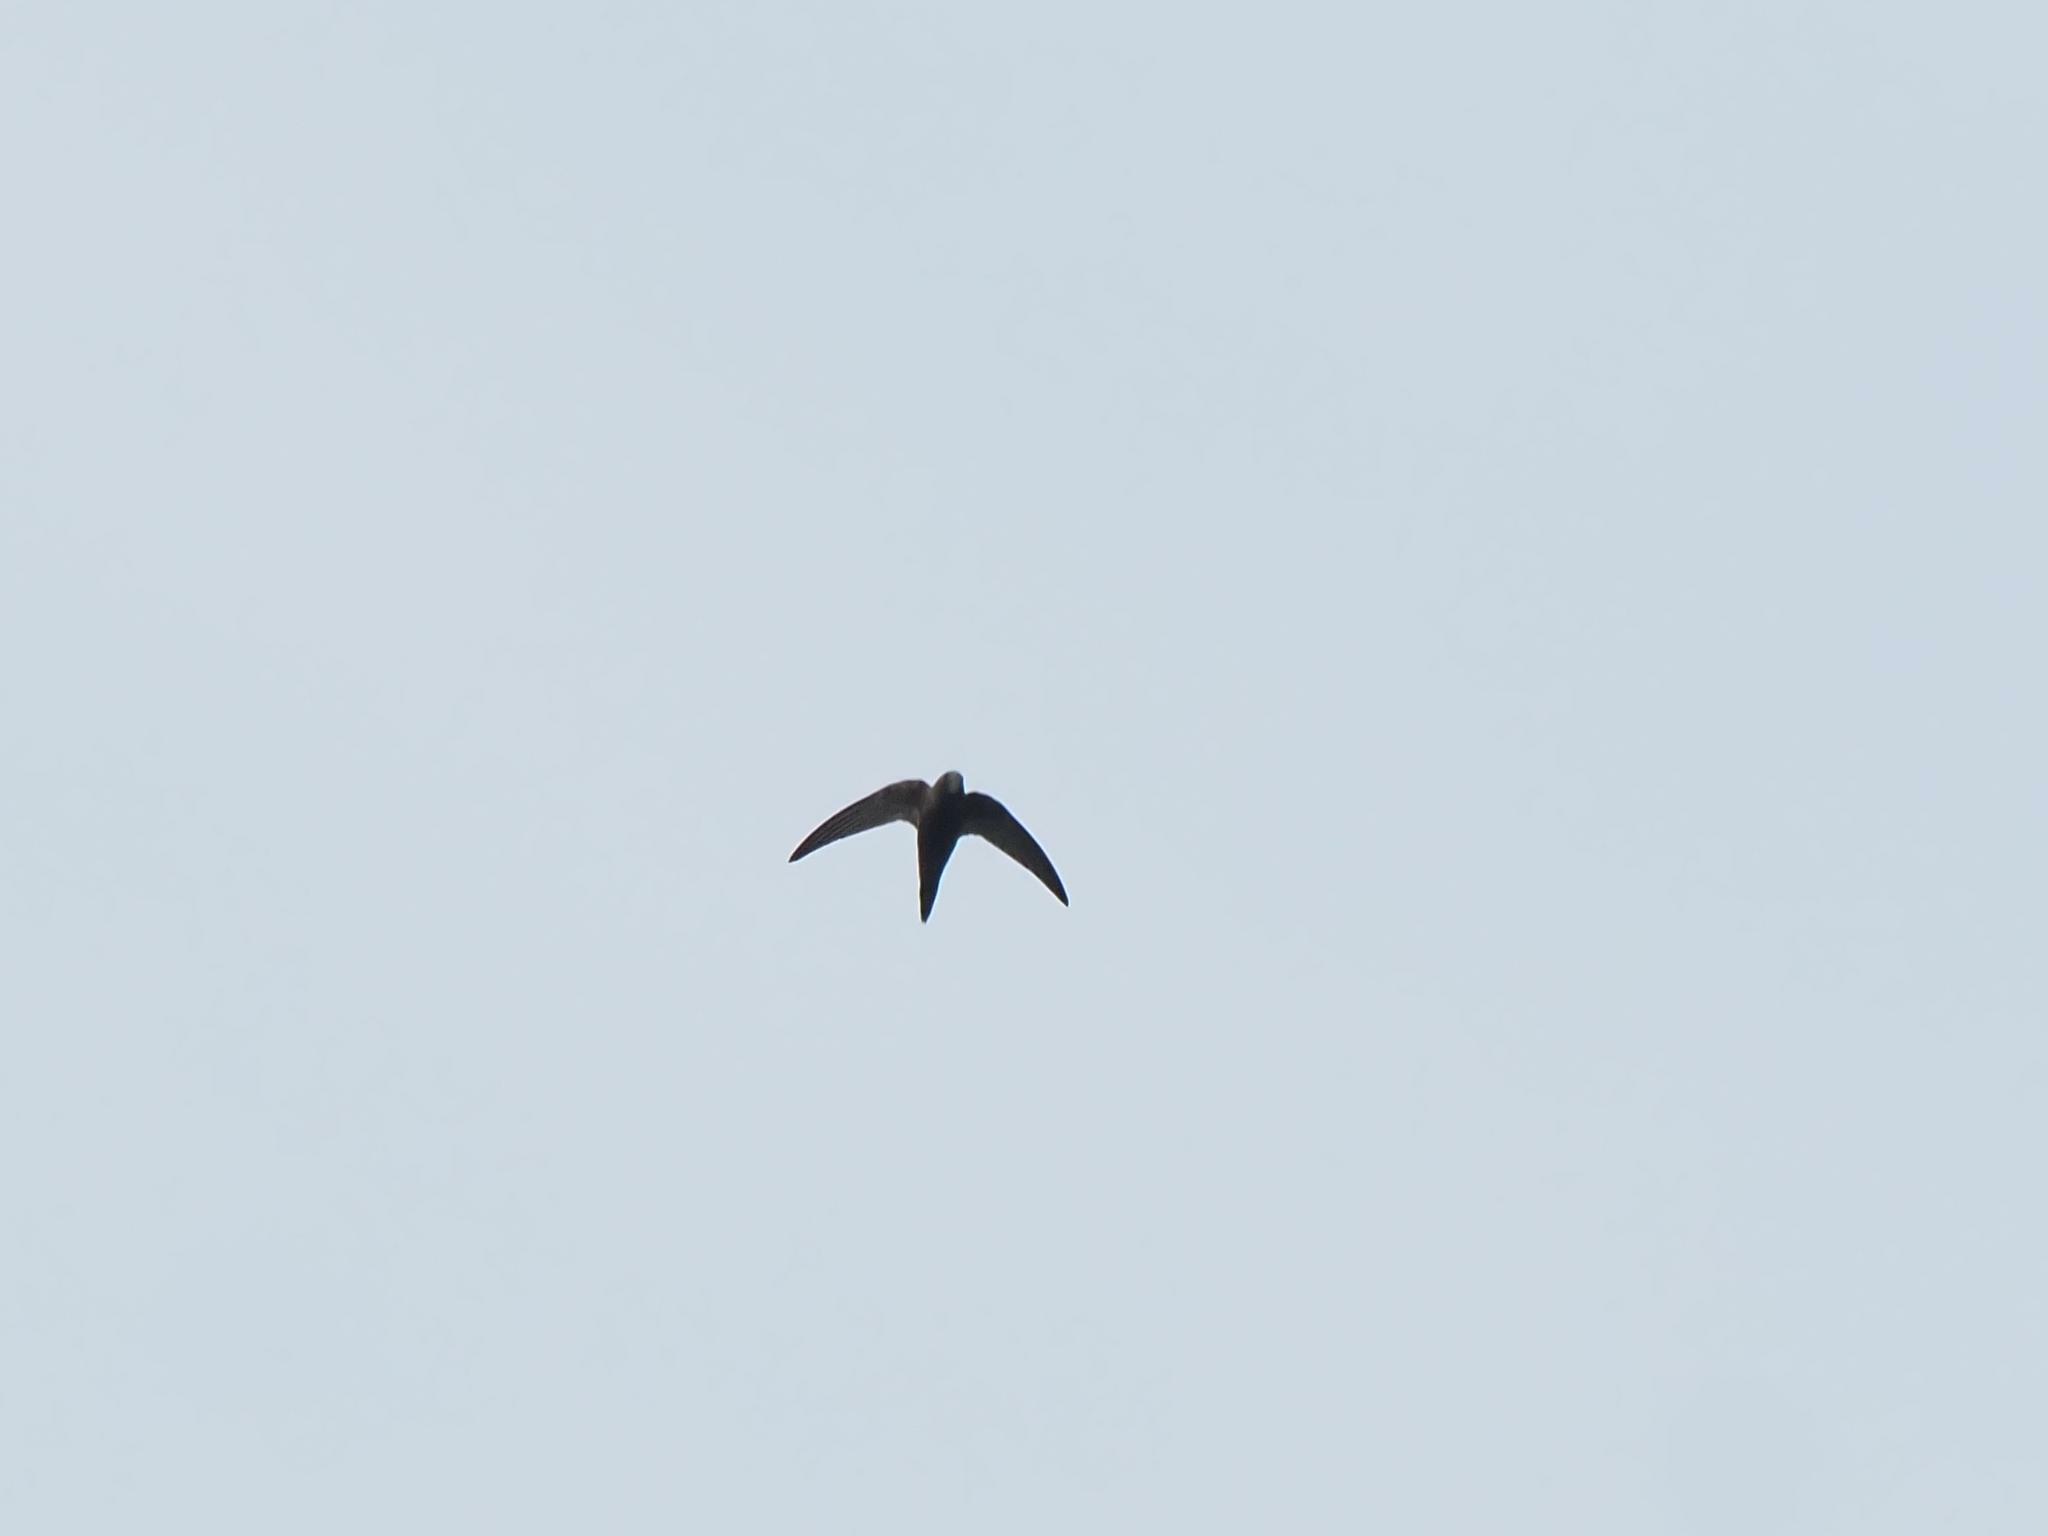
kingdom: Animalia
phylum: Chordata
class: Aves
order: Apodiformes
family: Apodidae
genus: Apus
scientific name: Apus apus
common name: Common swift
